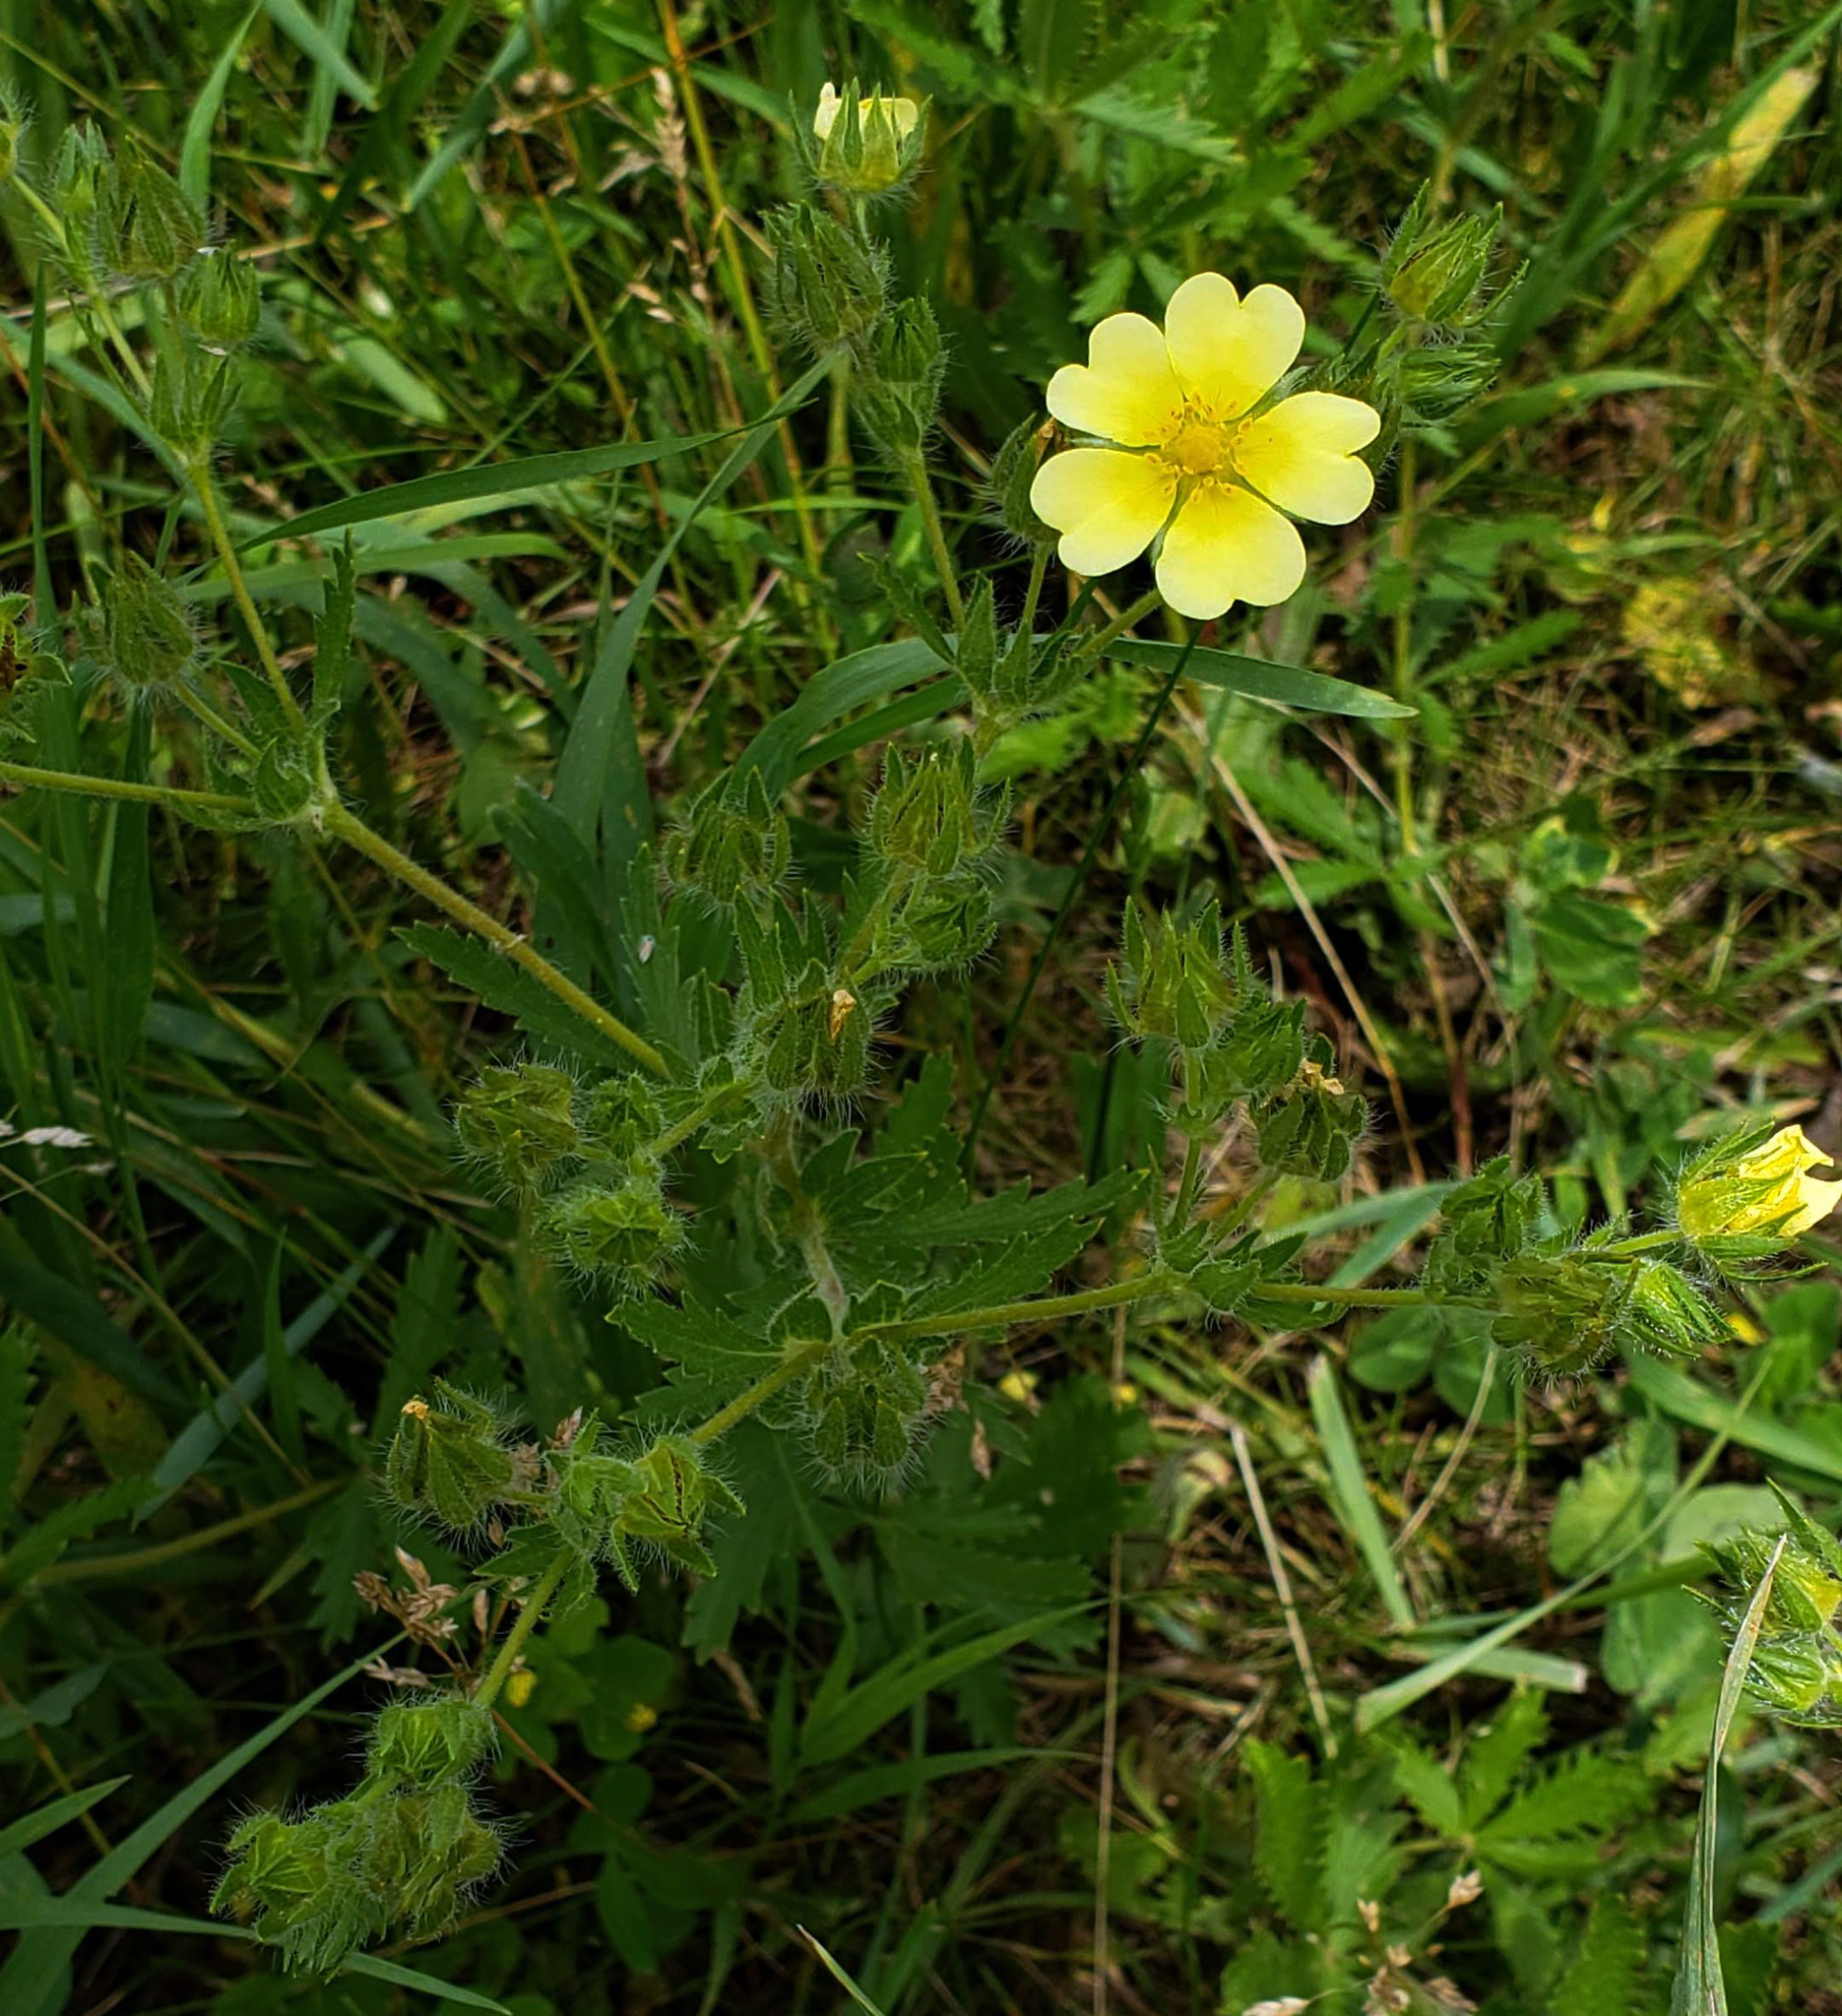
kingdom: Plantae
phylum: Tracheophyta
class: Magnoliopsida
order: Rosales
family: Rosaceae
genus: Potentilla
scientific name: Potentilla recta
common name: Sulphur cinquefoil
